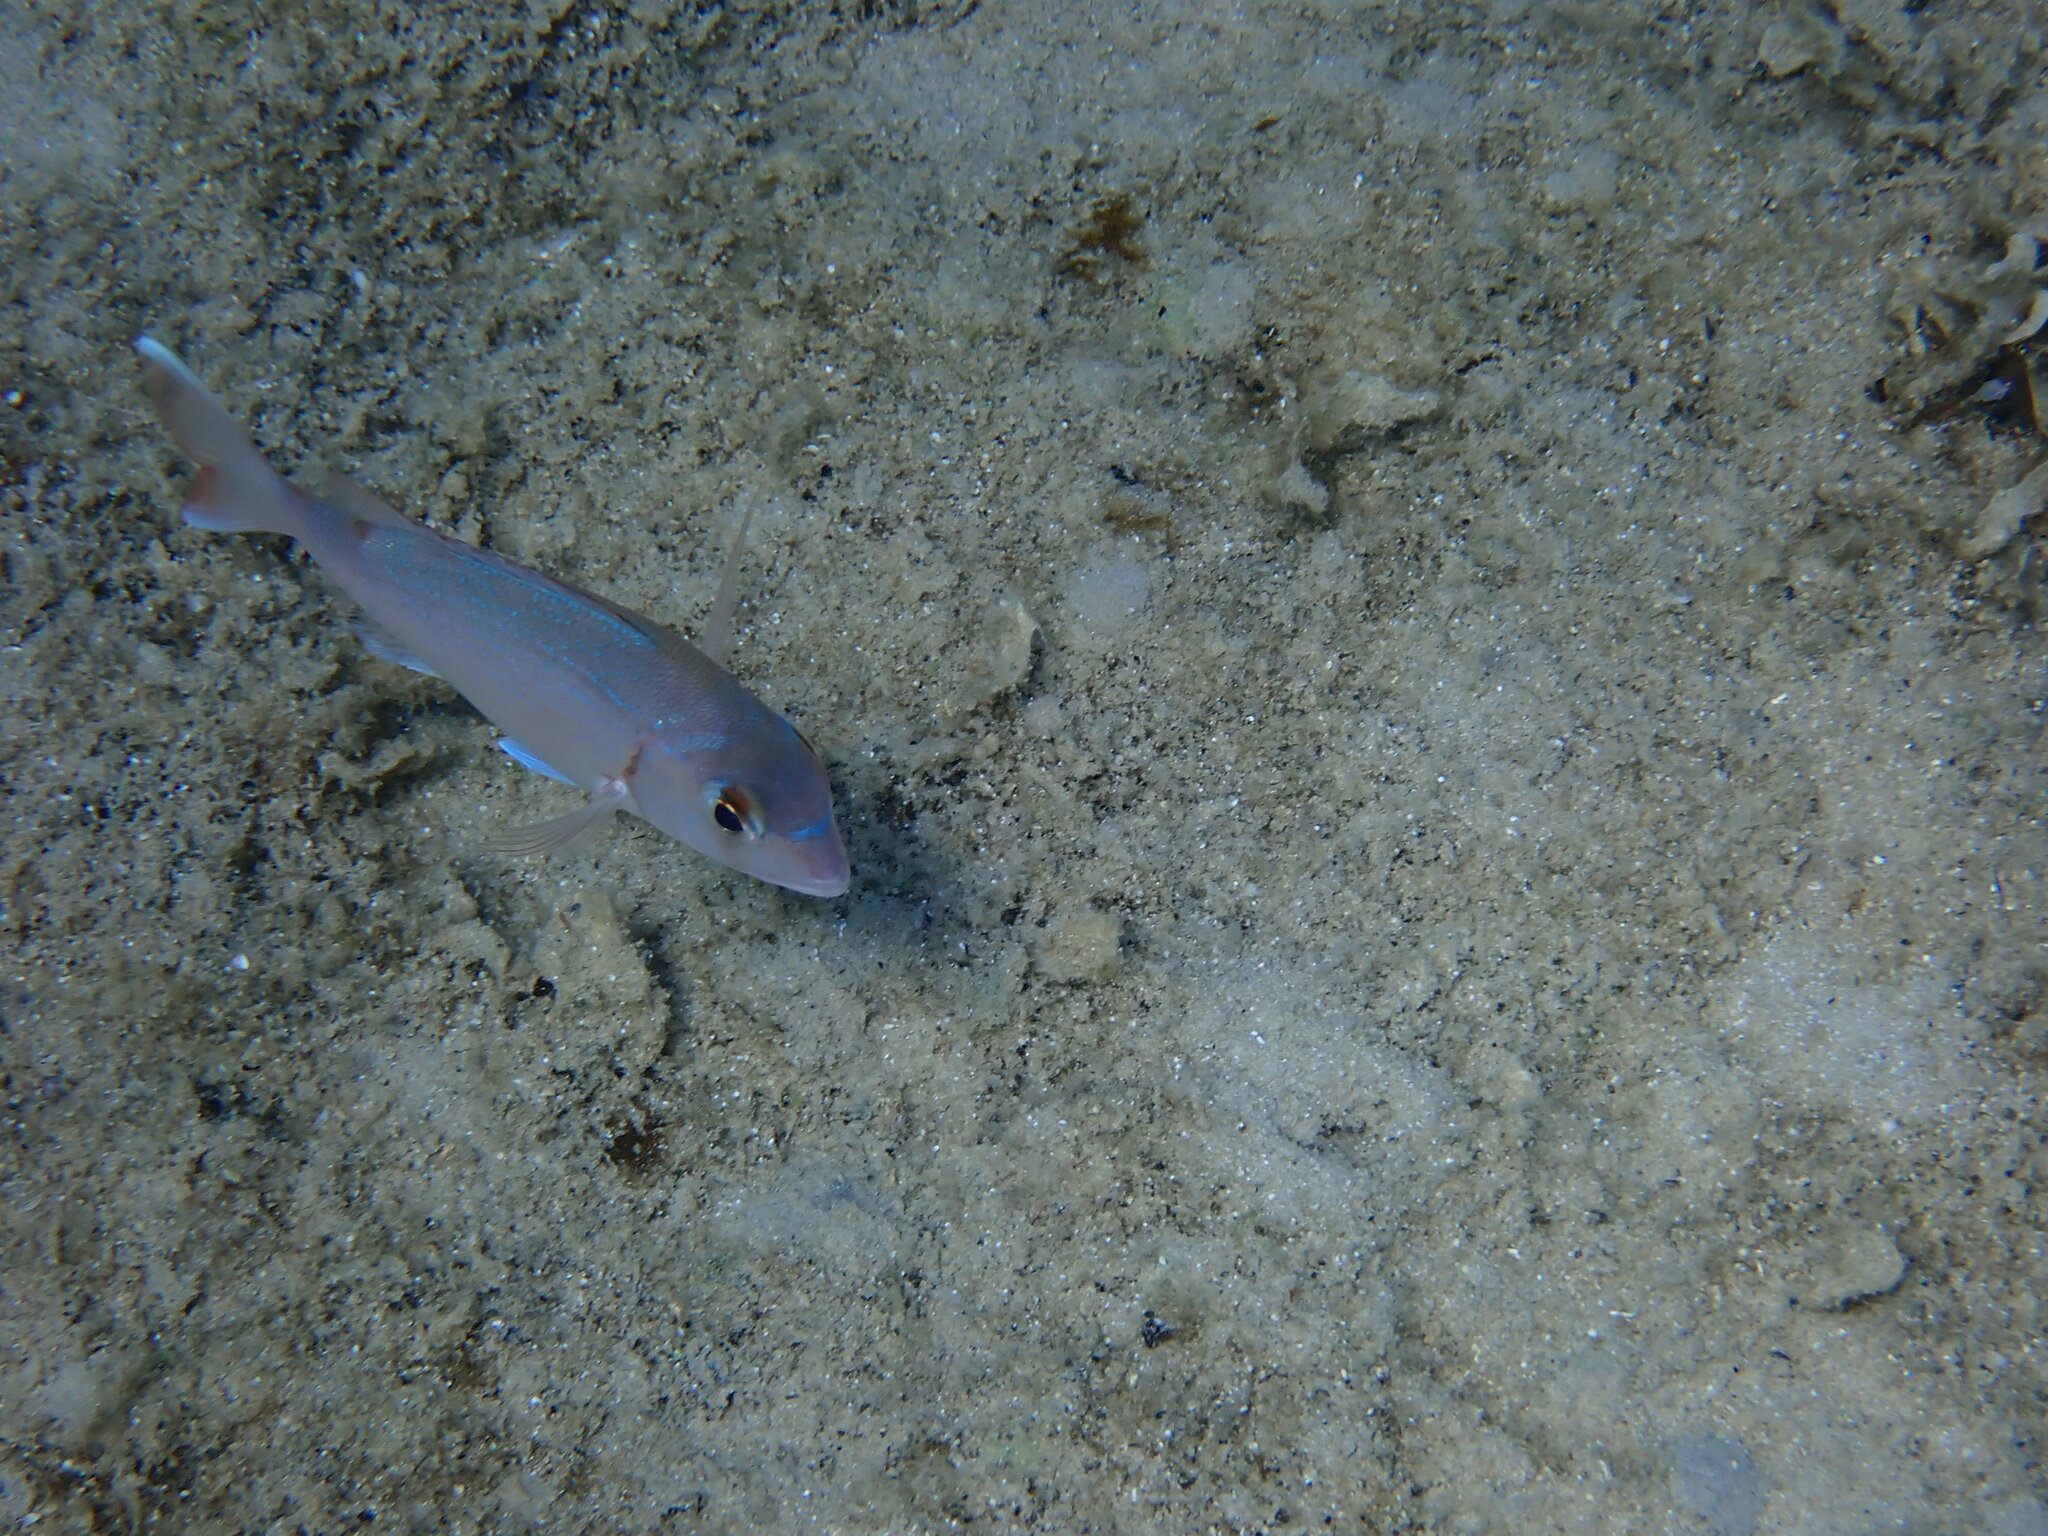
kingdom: Animalia
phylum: Chordata
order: Perciformes
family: Sparidae
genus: Pagrus
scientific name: Pagrus pagrus
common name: Red porgy
